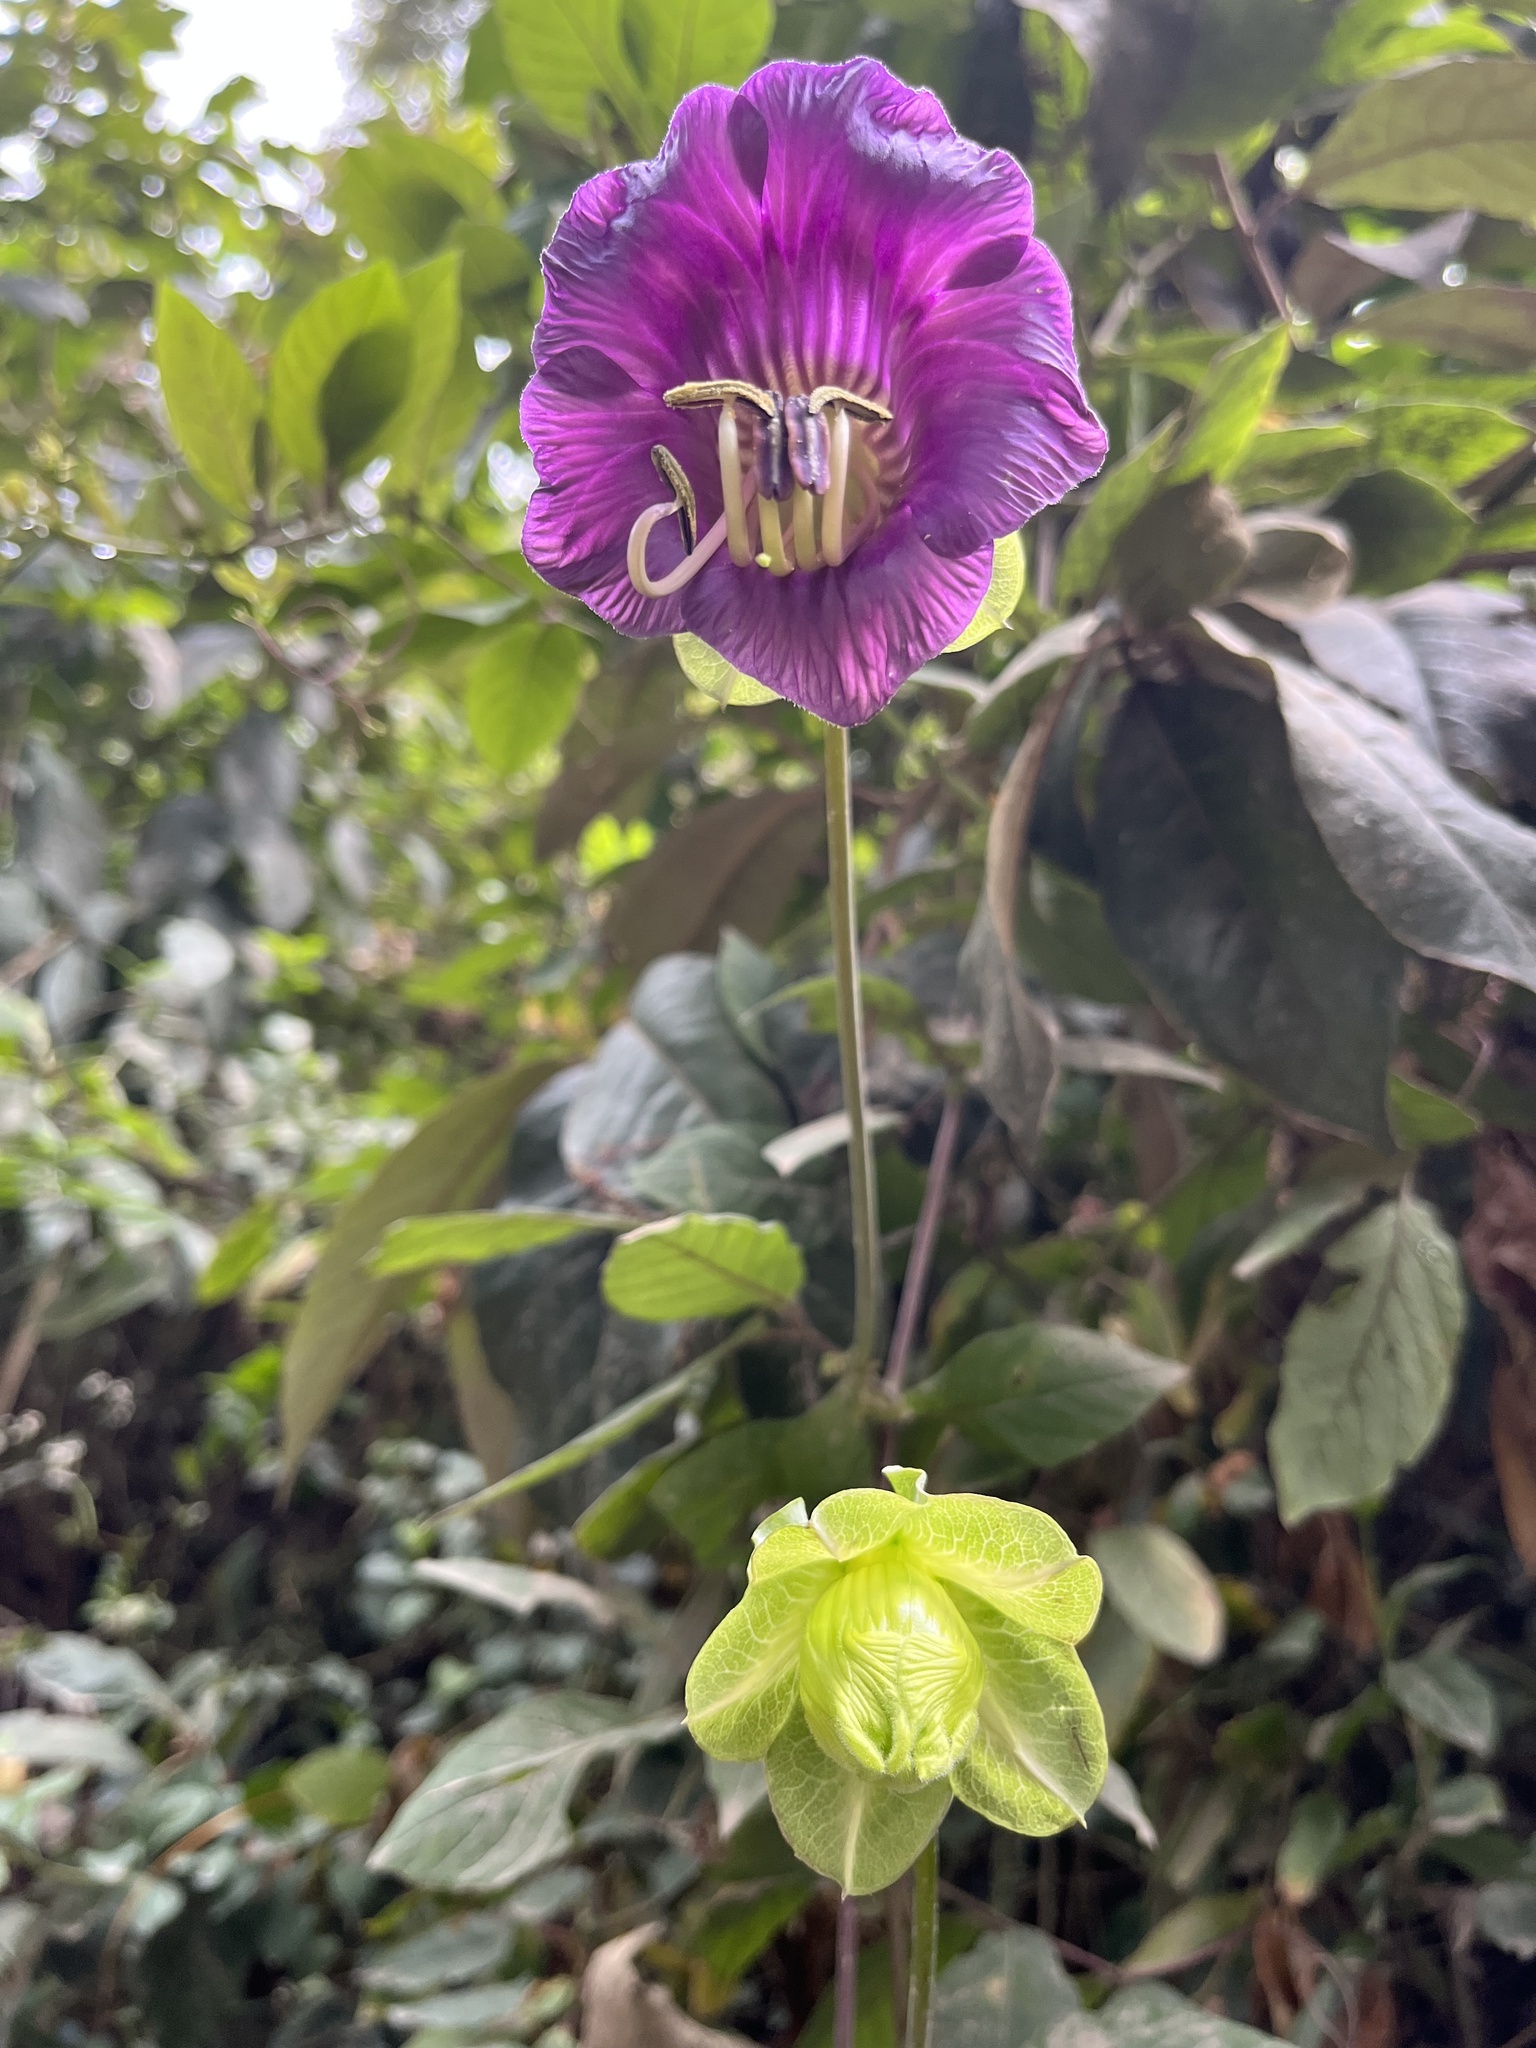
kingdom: Plantae
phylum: Tracheophyta
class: Magnoliopsida
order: Ericales
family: Polemoniaceae
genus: Cobaea
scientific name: Cobaea scandens
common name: Cup-and-saucer-vine
